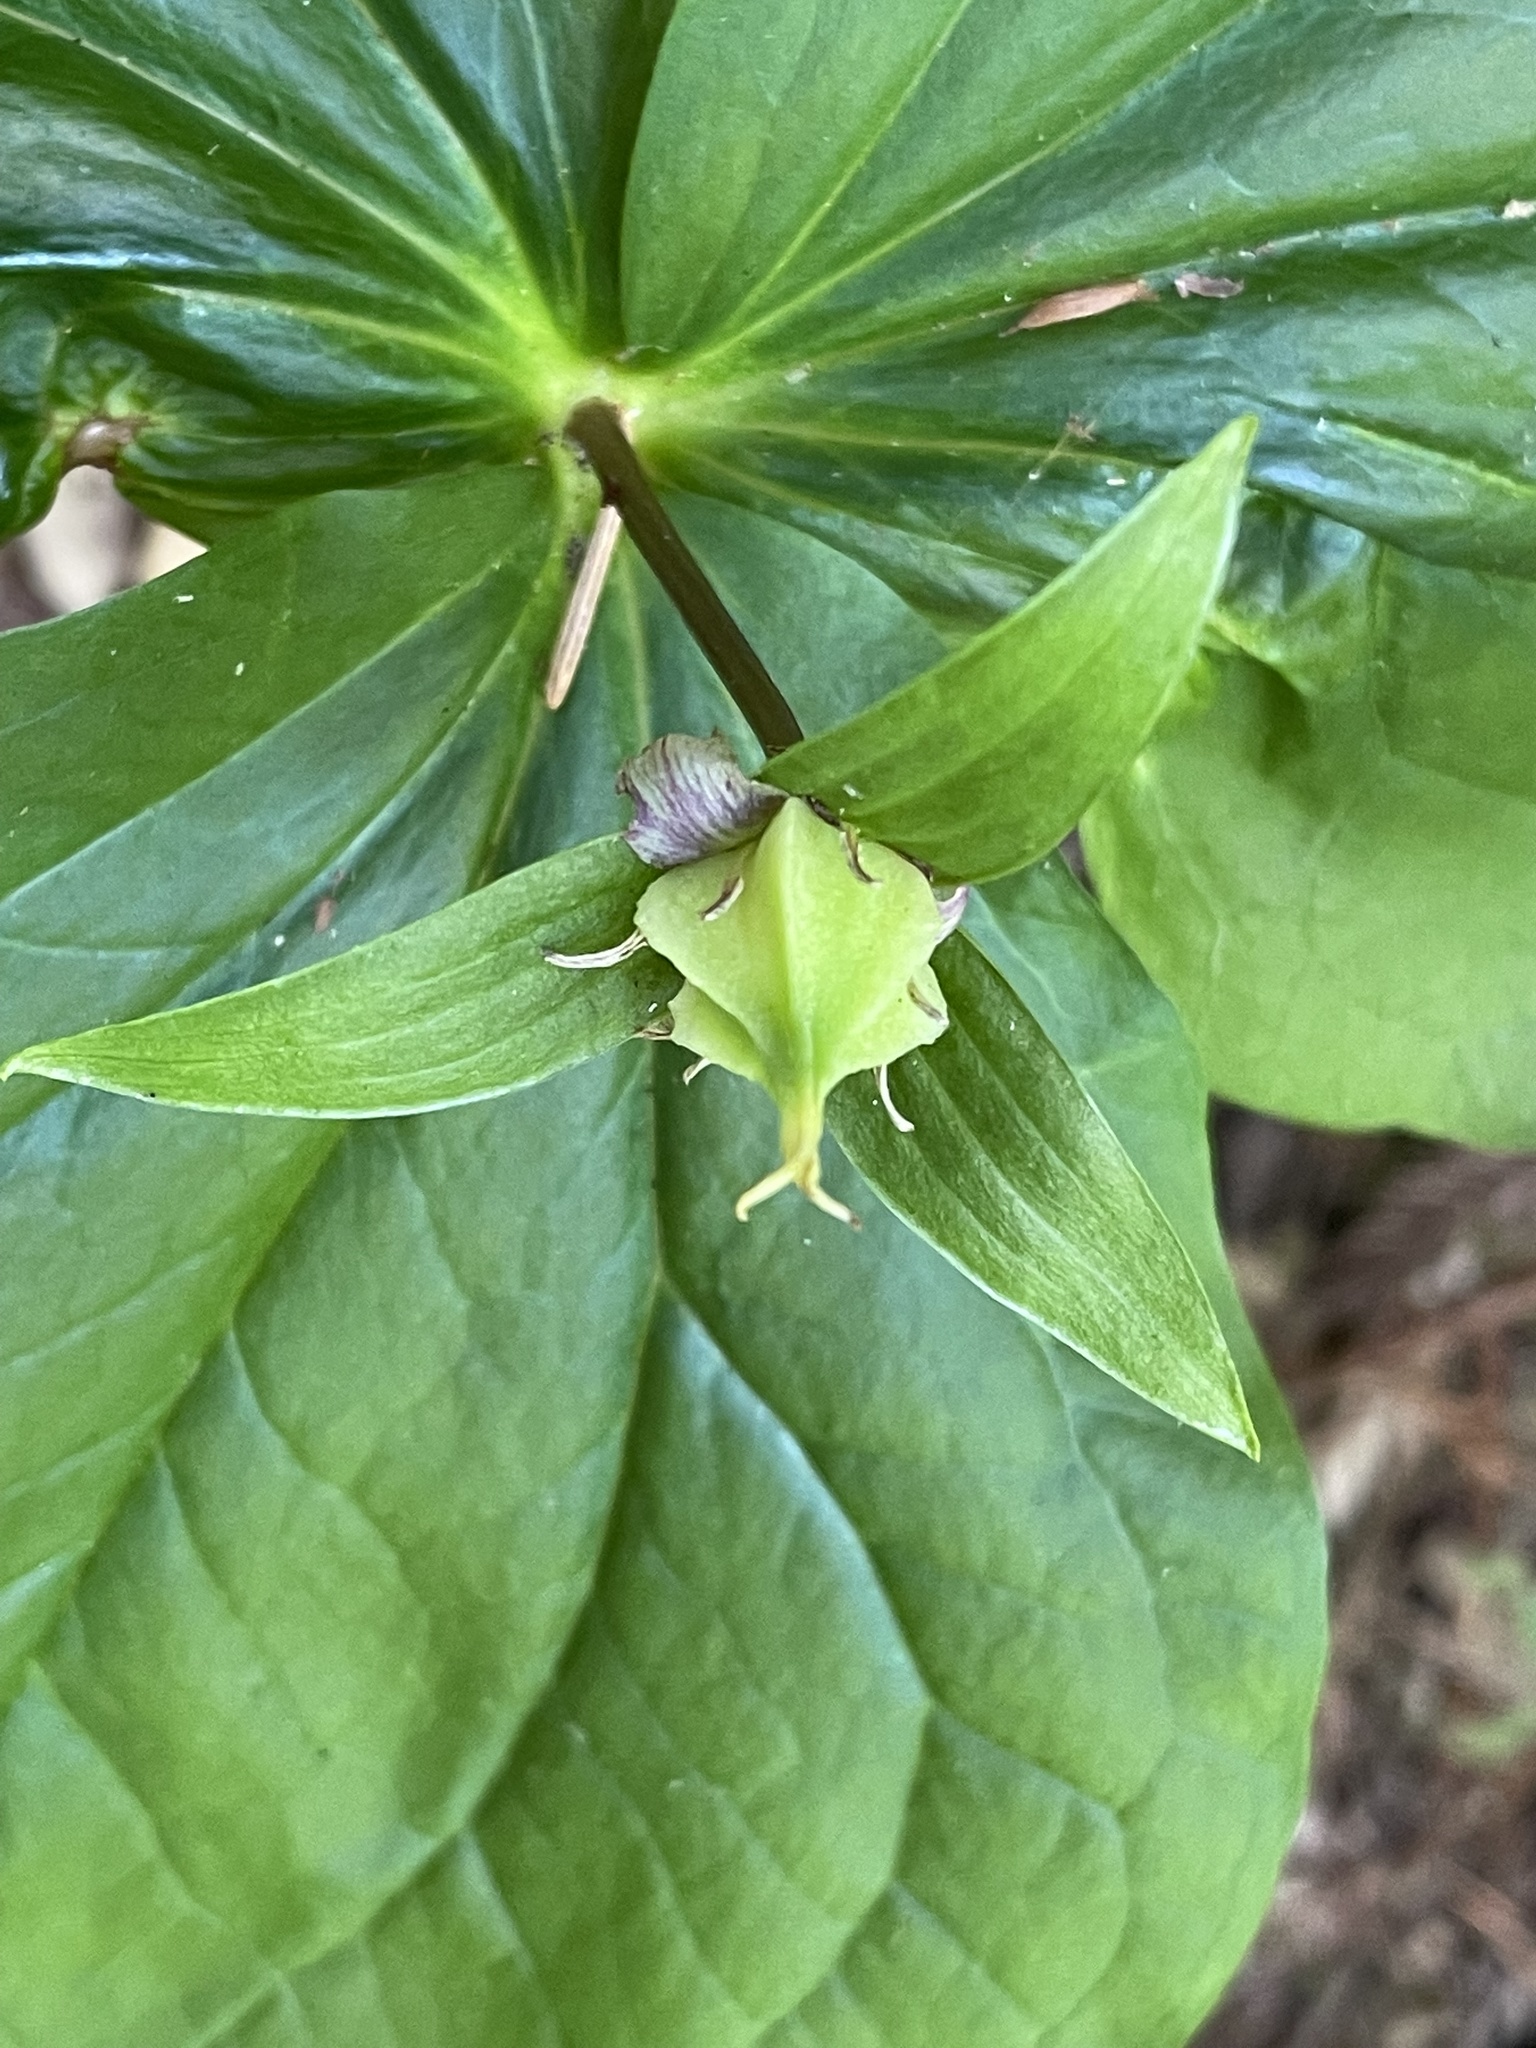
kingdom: Plantae
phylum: Tracheophyta
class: Liliopsida
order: Liliales
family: Melanthiaceae
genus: Trillium
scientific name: Trillium ovatum
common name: Pacific trillium
